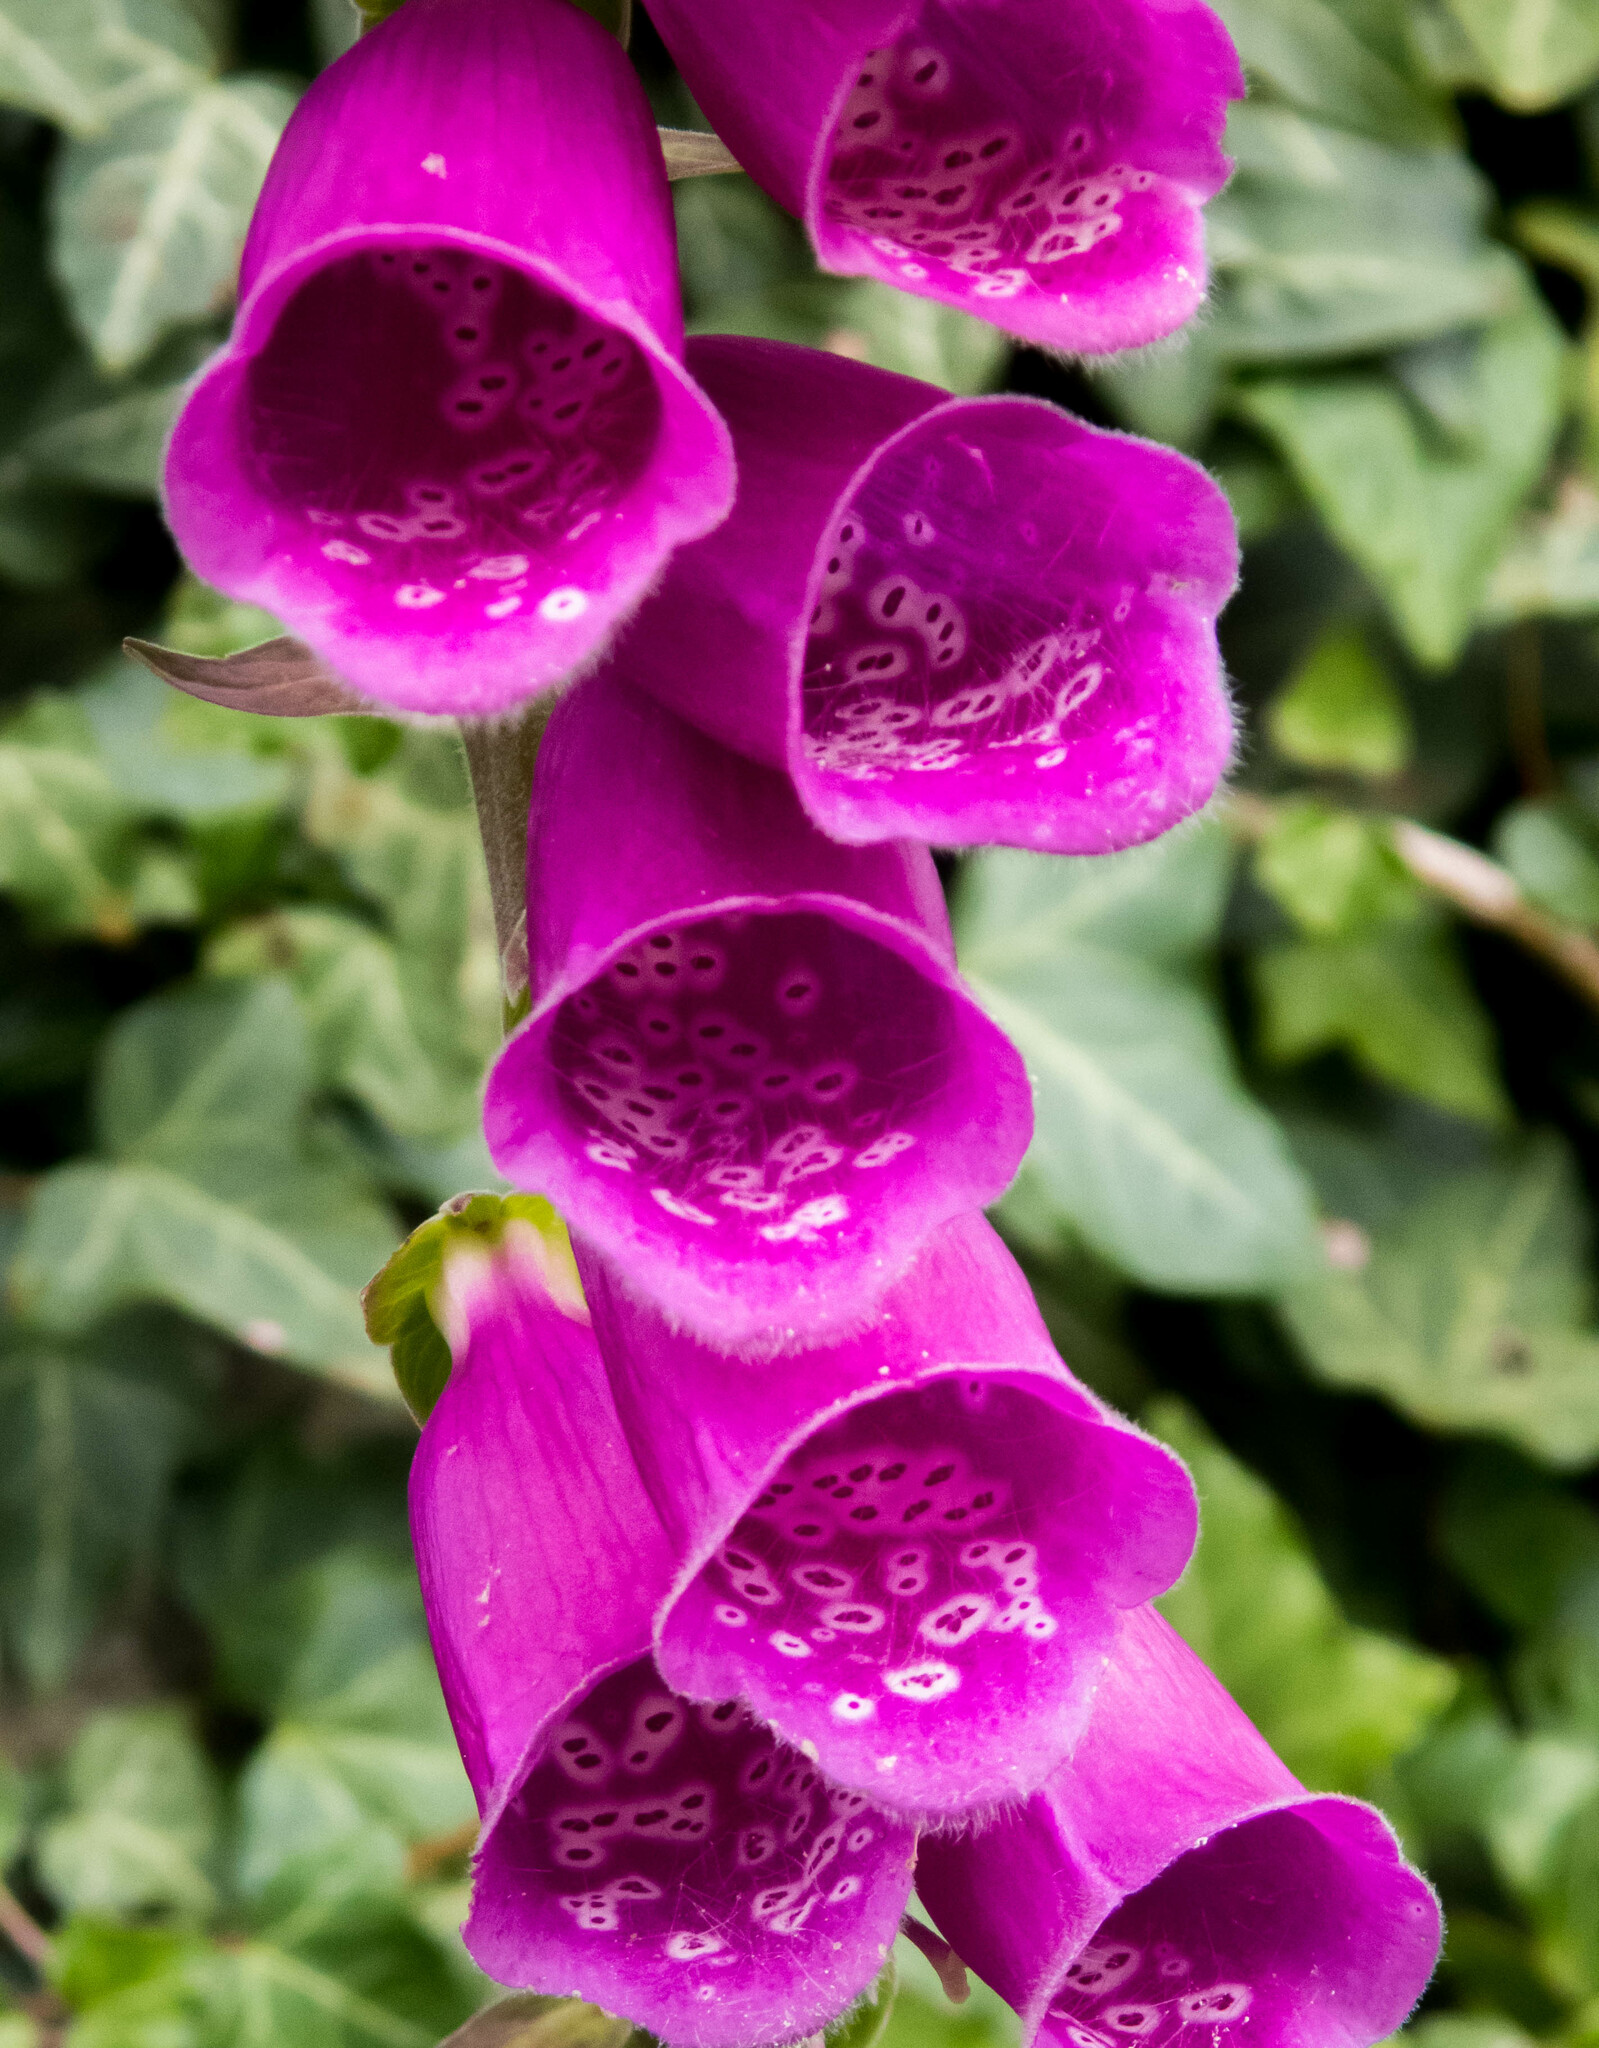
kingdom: Plantae
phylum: Tracheophyta
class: Magnoliopsida
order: Lamiales
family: Plantaginaceae
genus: Digitalis
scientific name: Digitalis purpurea
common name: Foxglove
